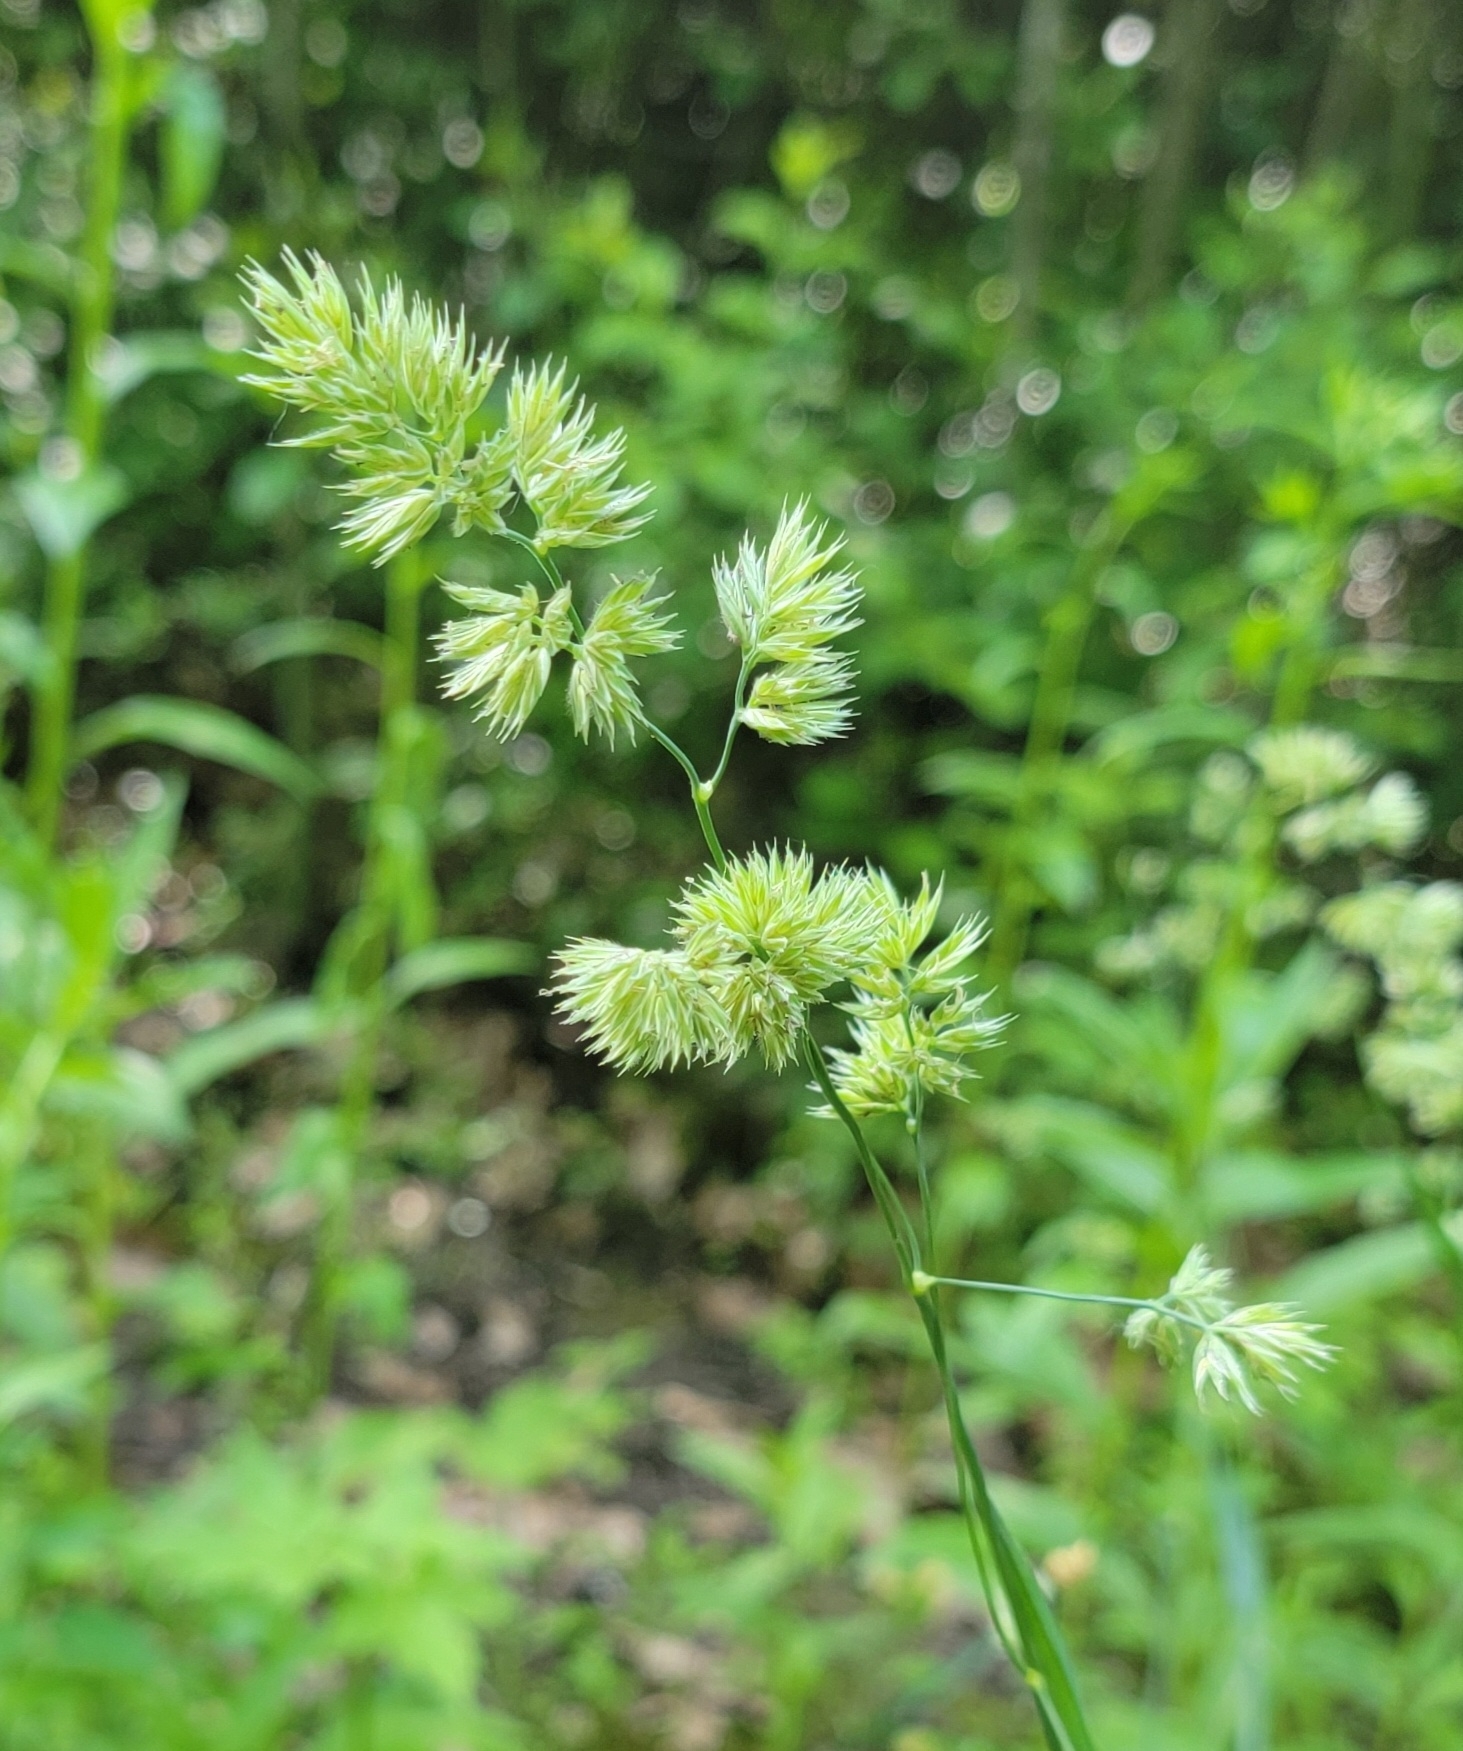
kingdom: Plantae
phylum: Tracheophyta
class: Liliopsida
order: Poales
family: Poaceae
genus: Dactylis
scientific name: Dactylis glomerata
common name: Orchardgrass
